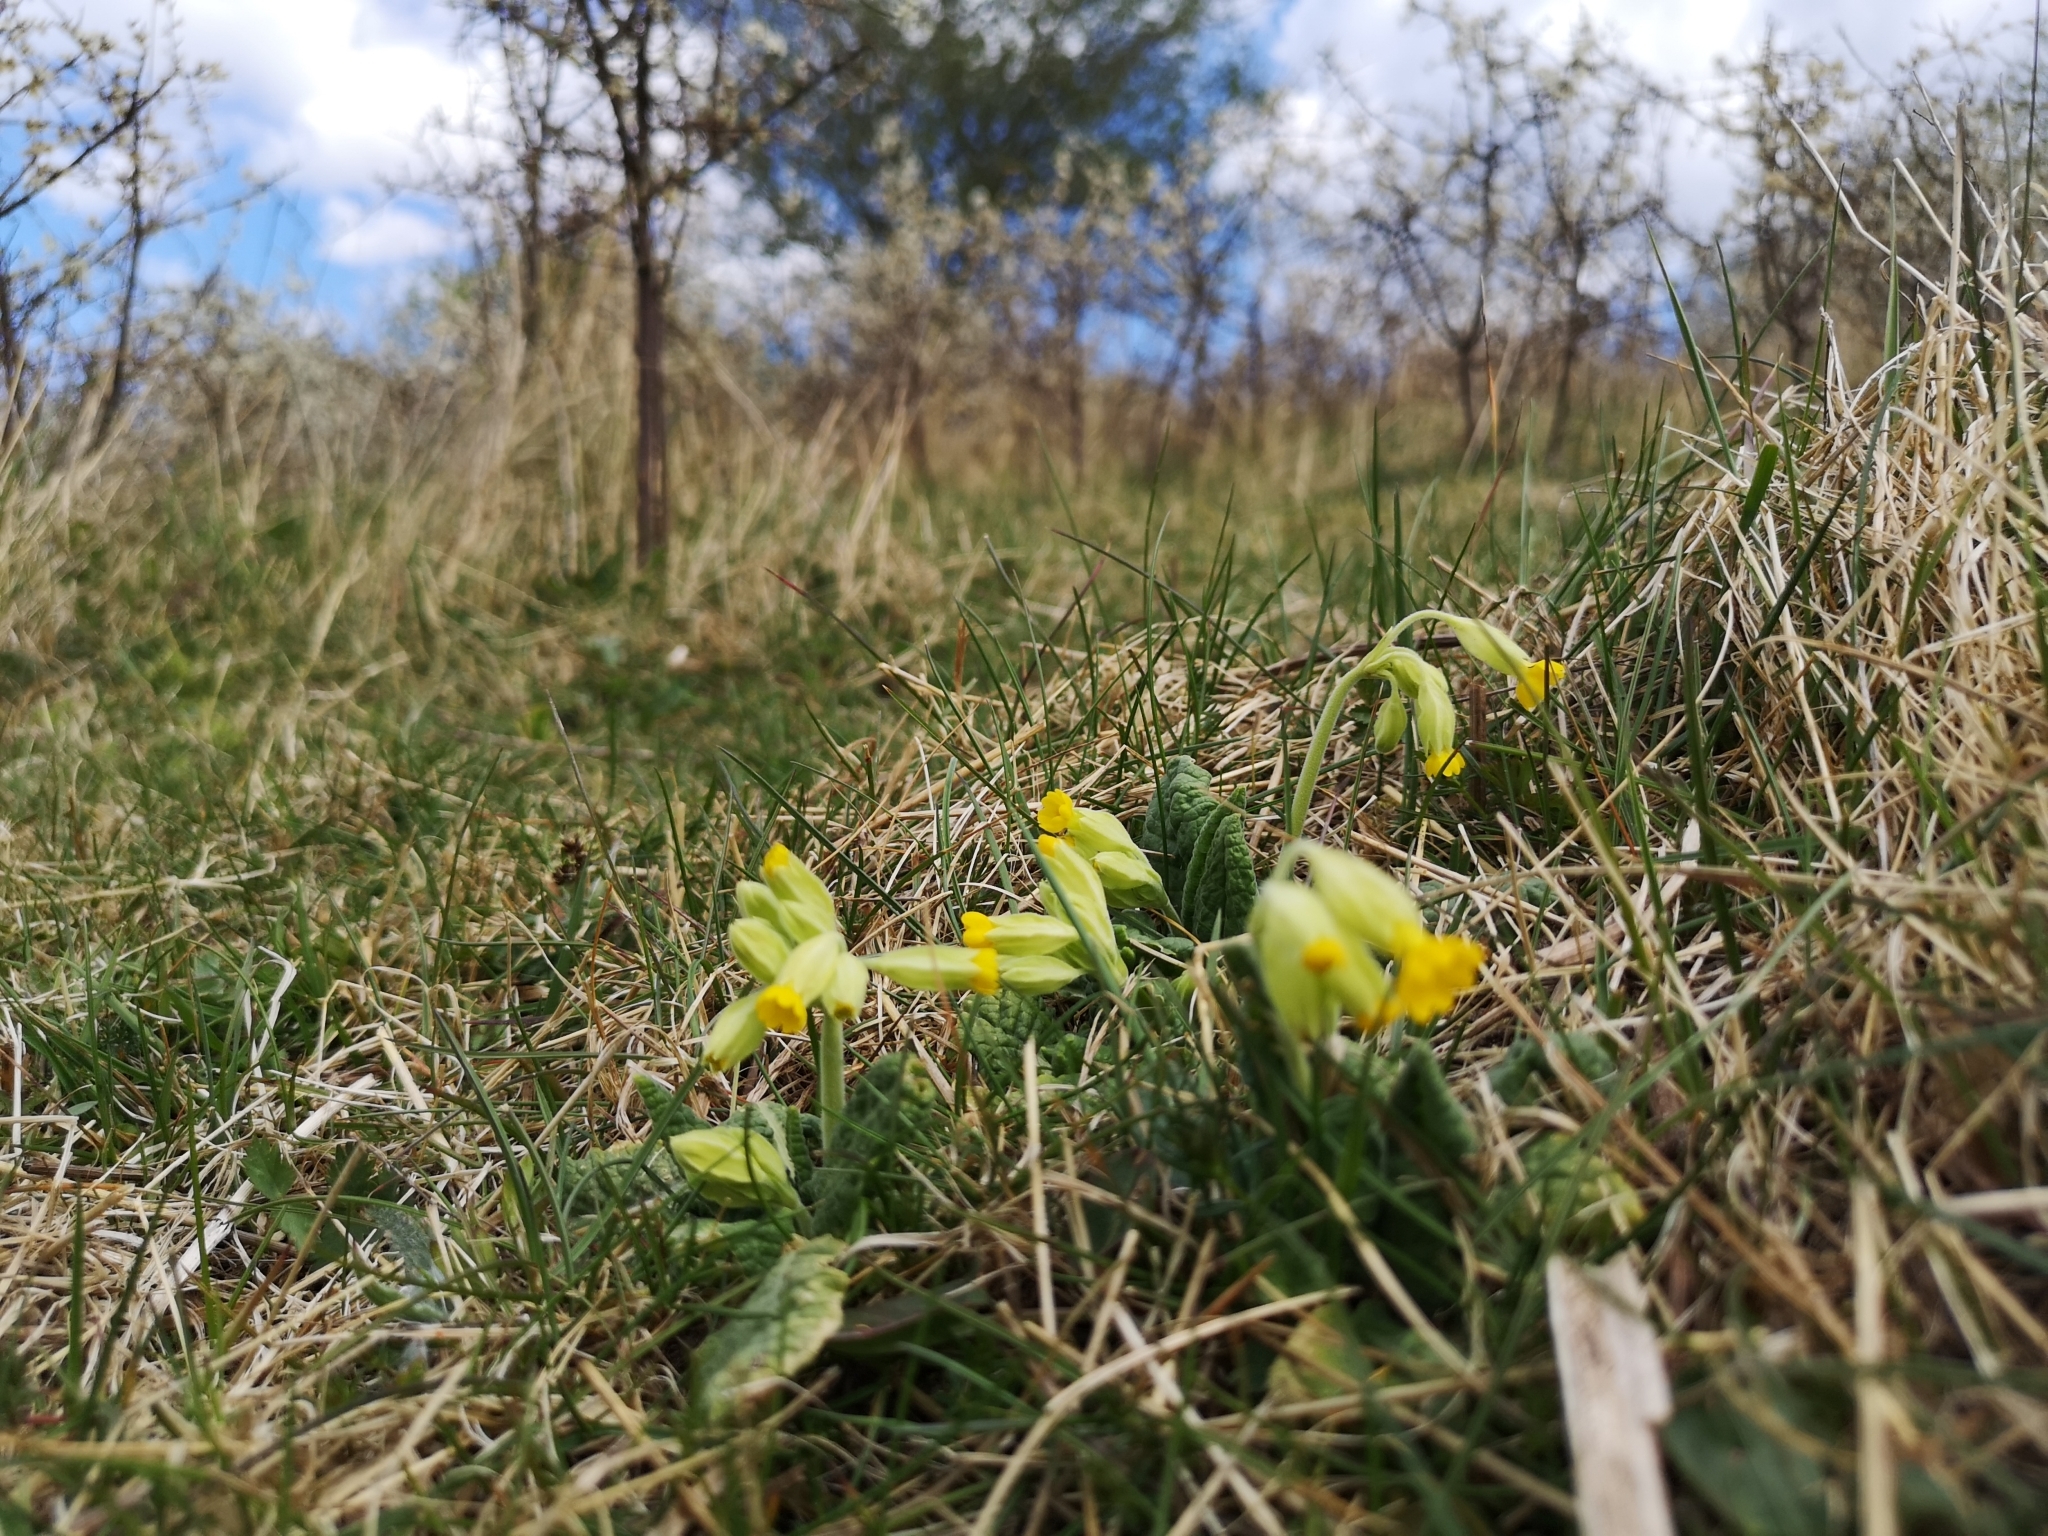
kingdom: Plantae
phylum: Tracheophyta
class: Magnoliopsida
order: Ericales
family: Primulaceae
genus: Primula
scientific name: Primula veris
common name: Cowslip
